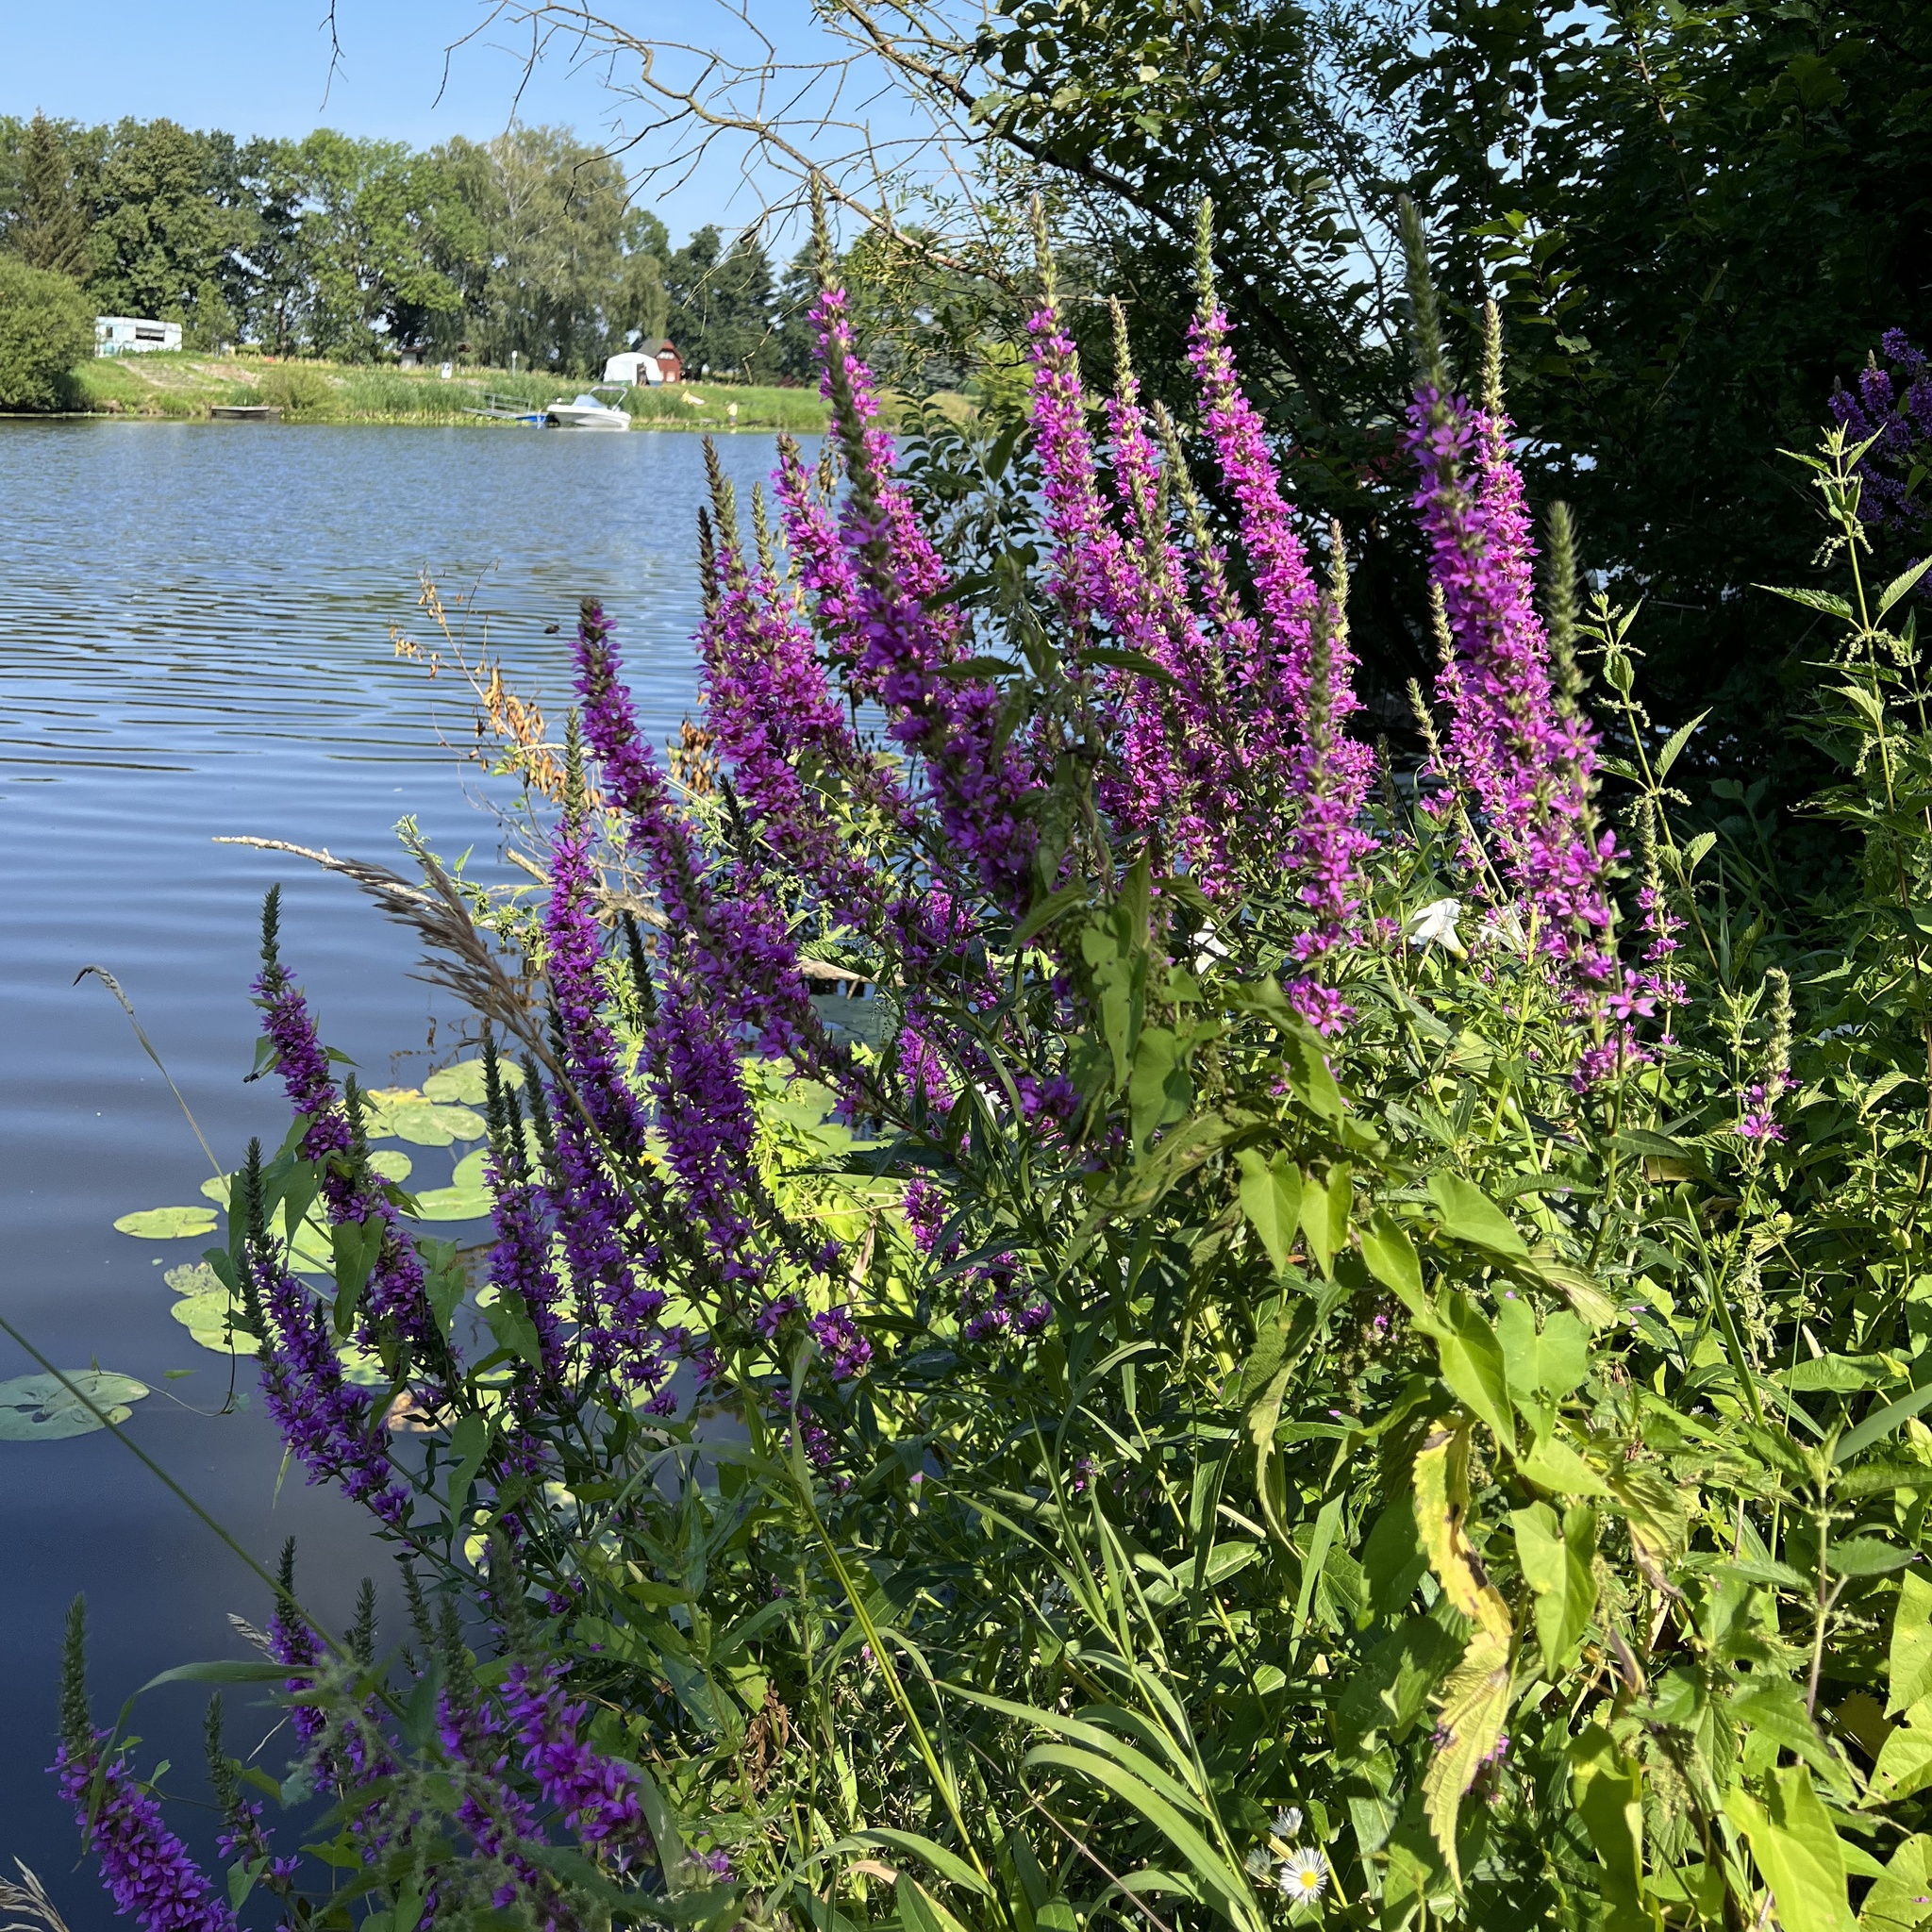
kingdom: Plantae
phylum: Tracheophyta
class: Magnoliopsida
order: Myrtales
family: Lythraceae
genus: Lythrum
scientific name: Lythrum salicaria
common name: Purple loosestrife
